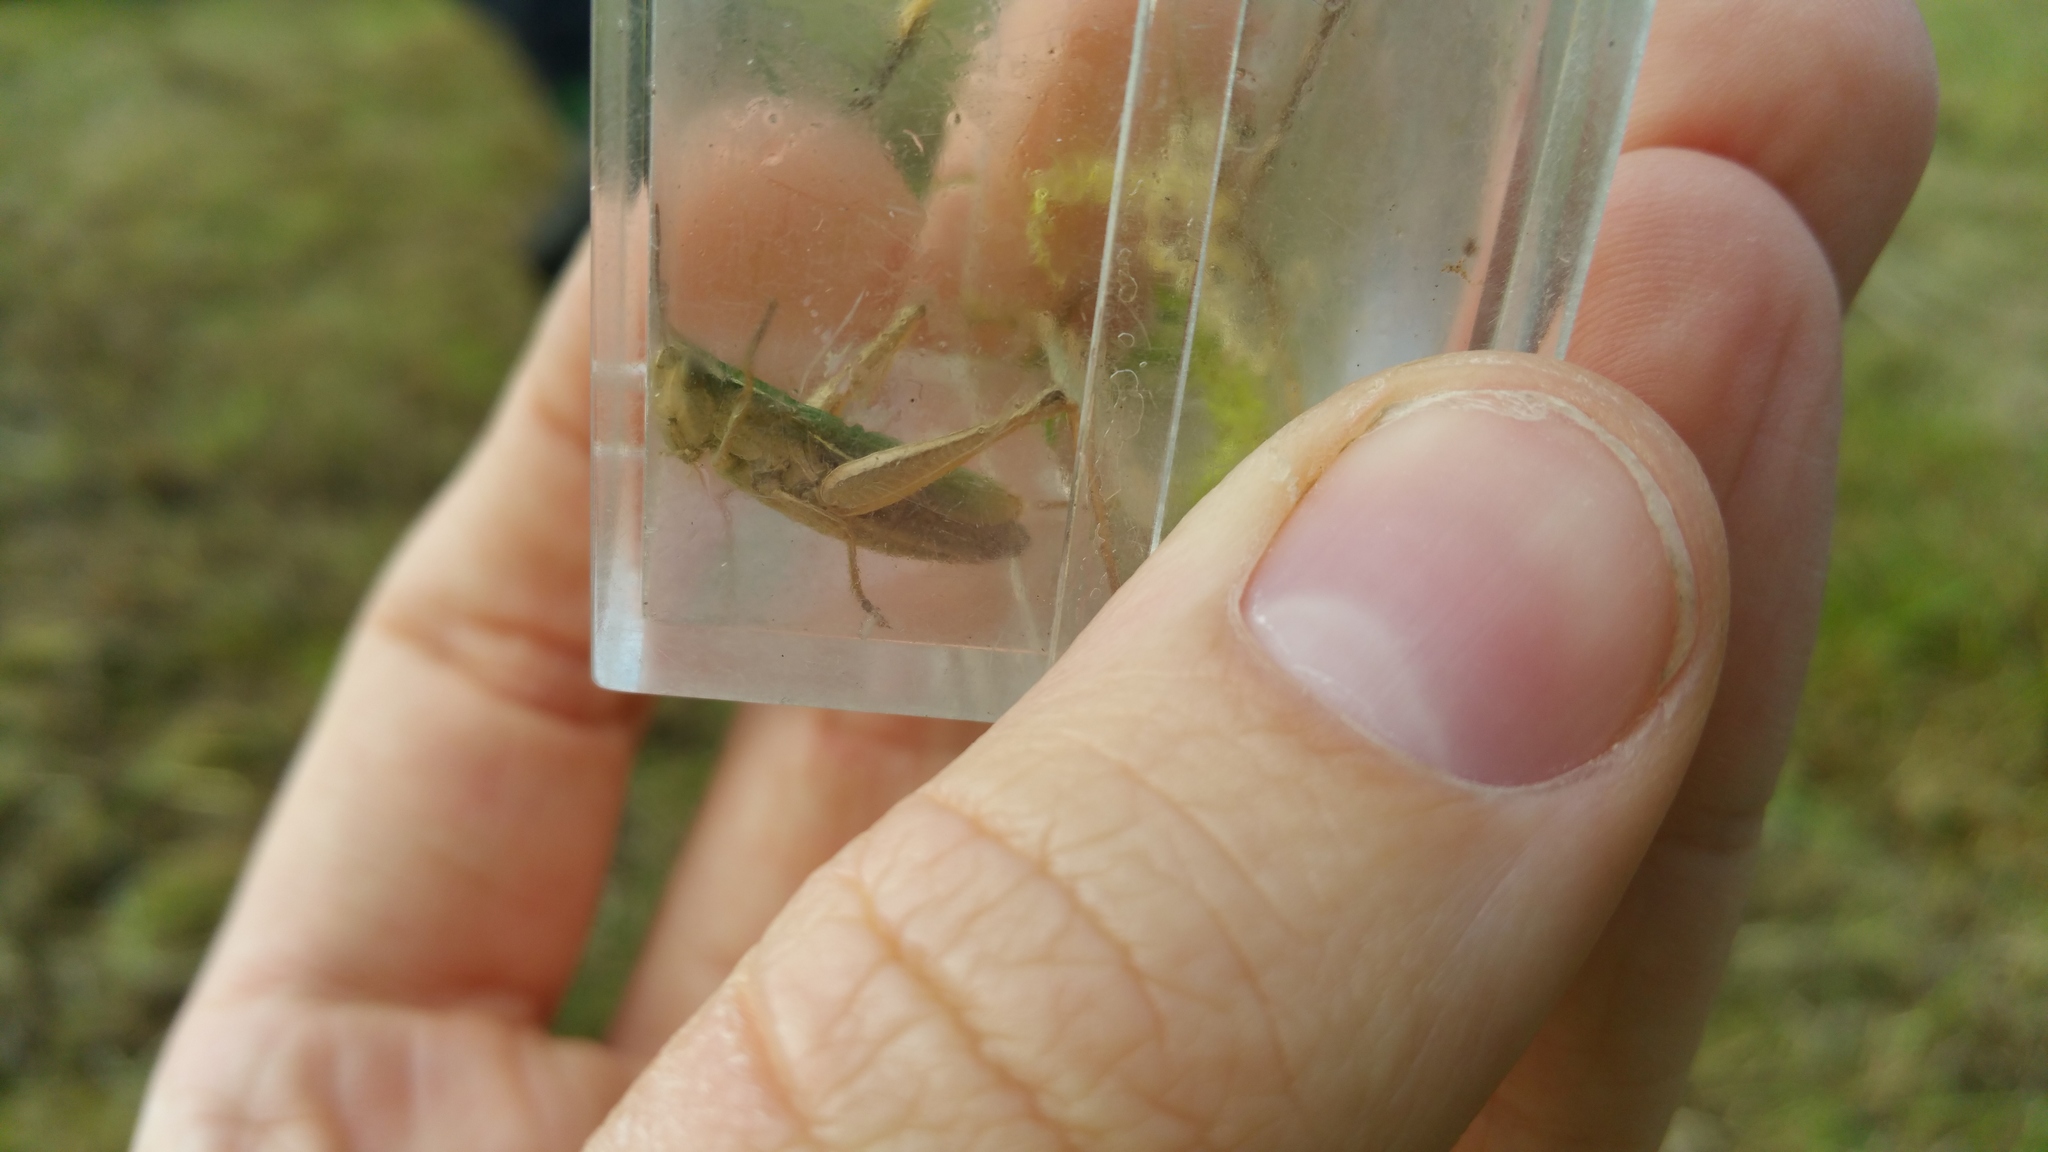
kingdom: Animalia
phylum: Arthropoda
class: Insecta
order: Orthoptera
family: Acrididae
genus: Chorthippus
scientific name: Chorthippus albomarginatus
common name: Lesser marsh grasshopper
